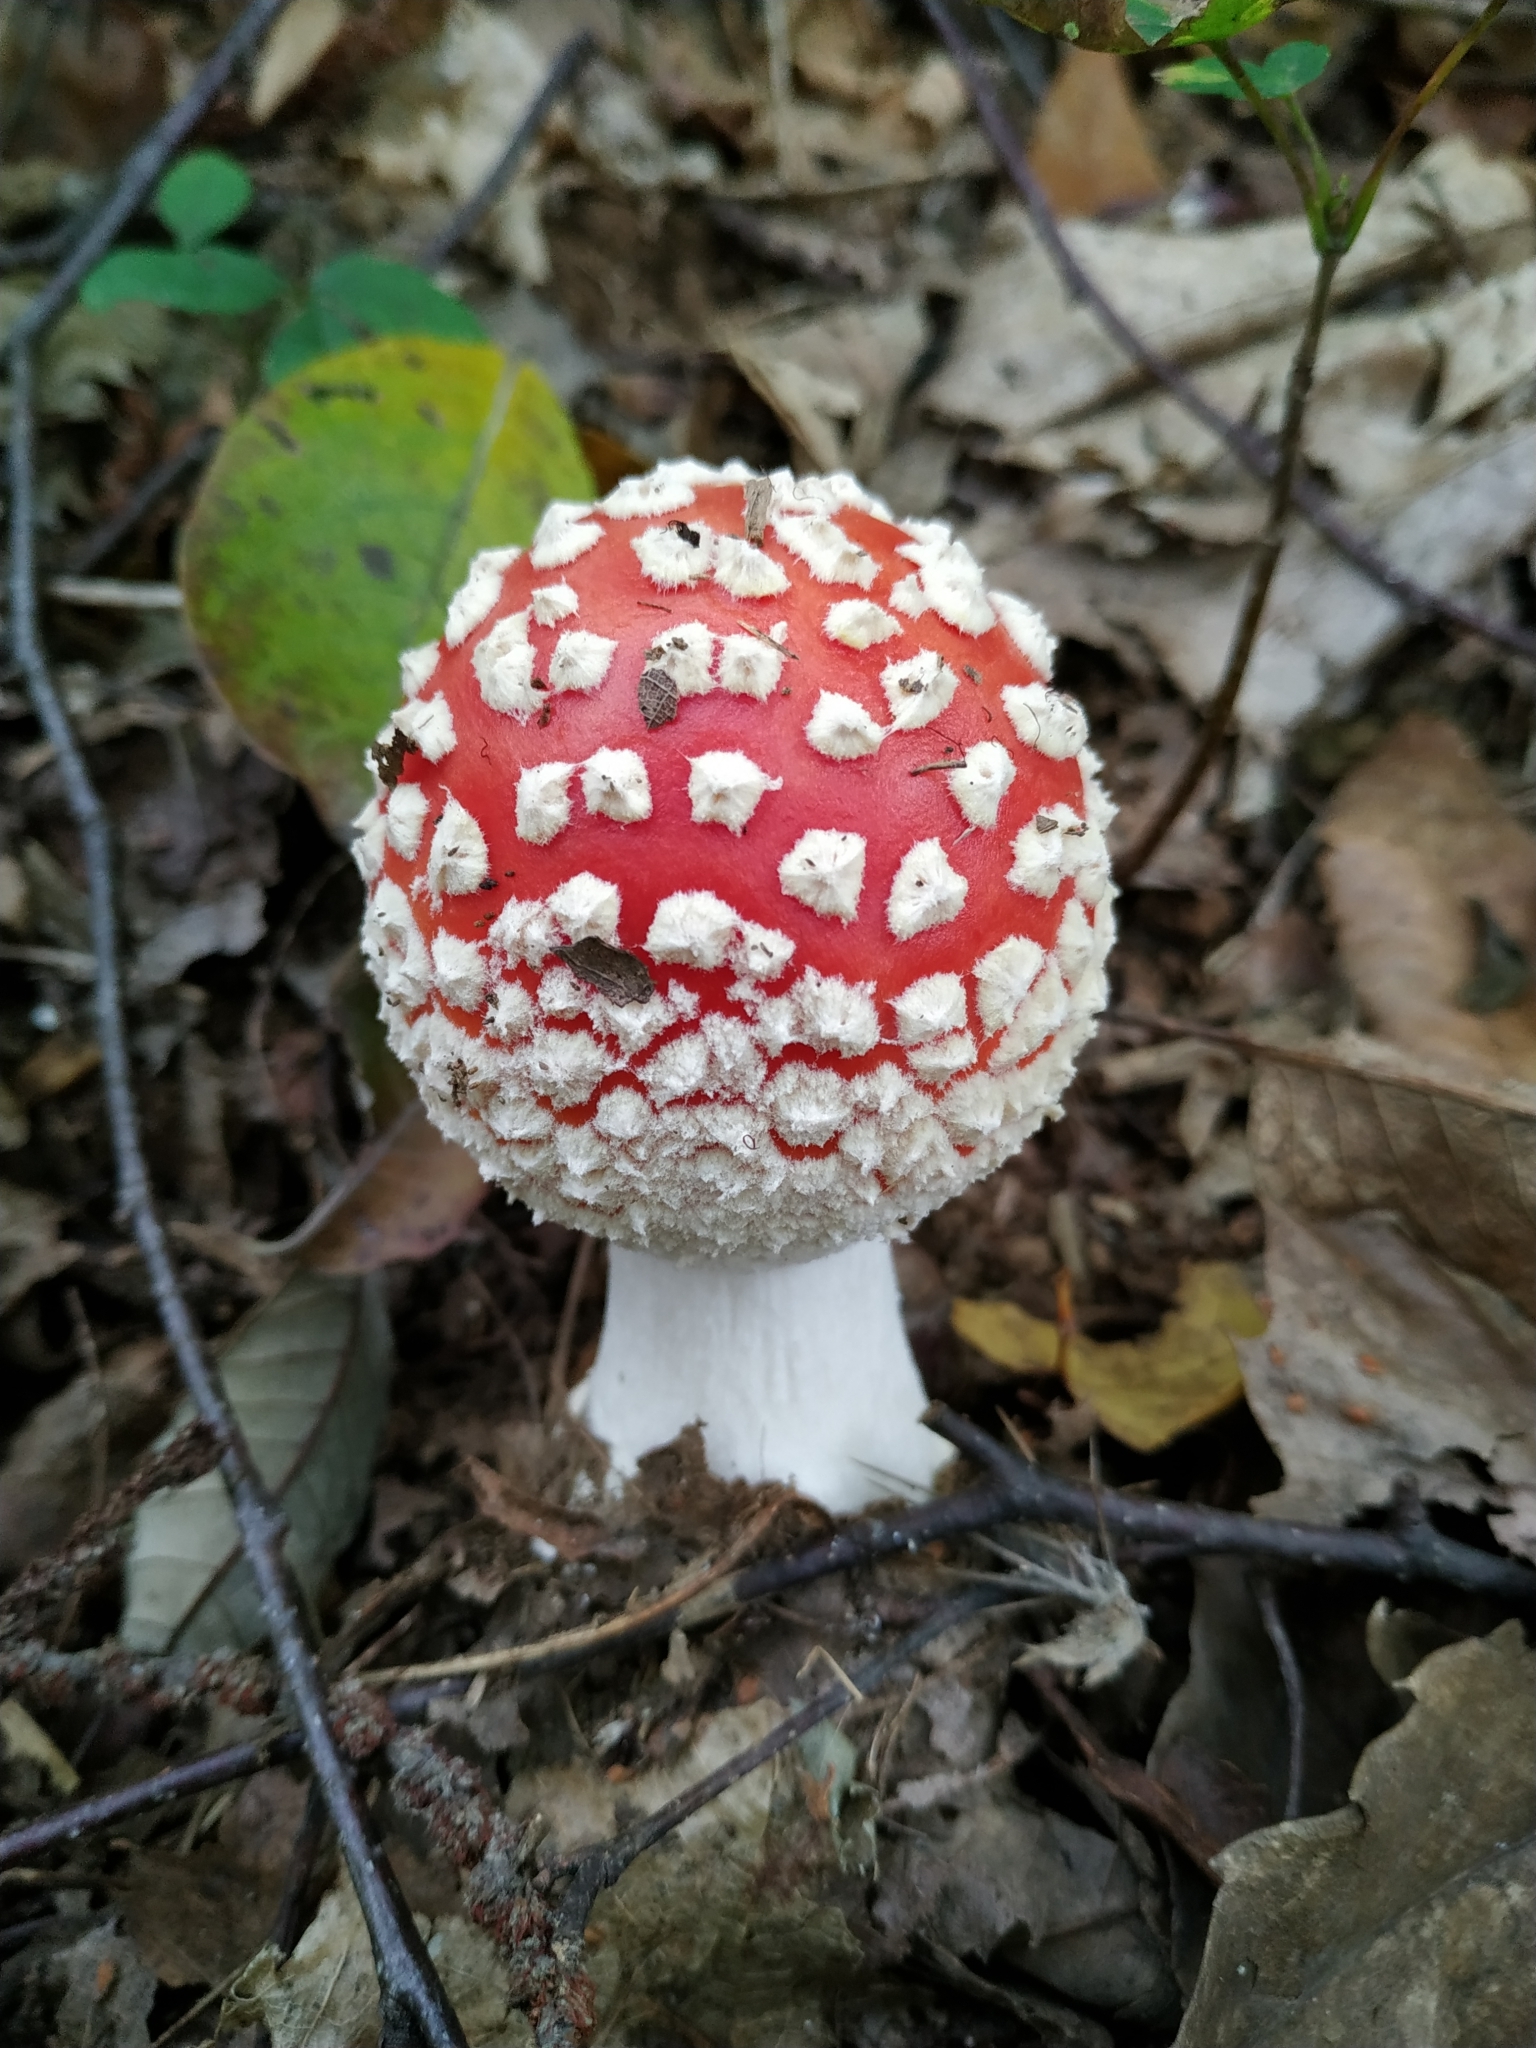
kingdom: Fungi
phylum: Basidiomycota
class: Agaricomycetes
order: Agaricales
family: Amanitaceae
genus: Amanita
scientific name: Amanita muscaria
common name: Fly agaric
